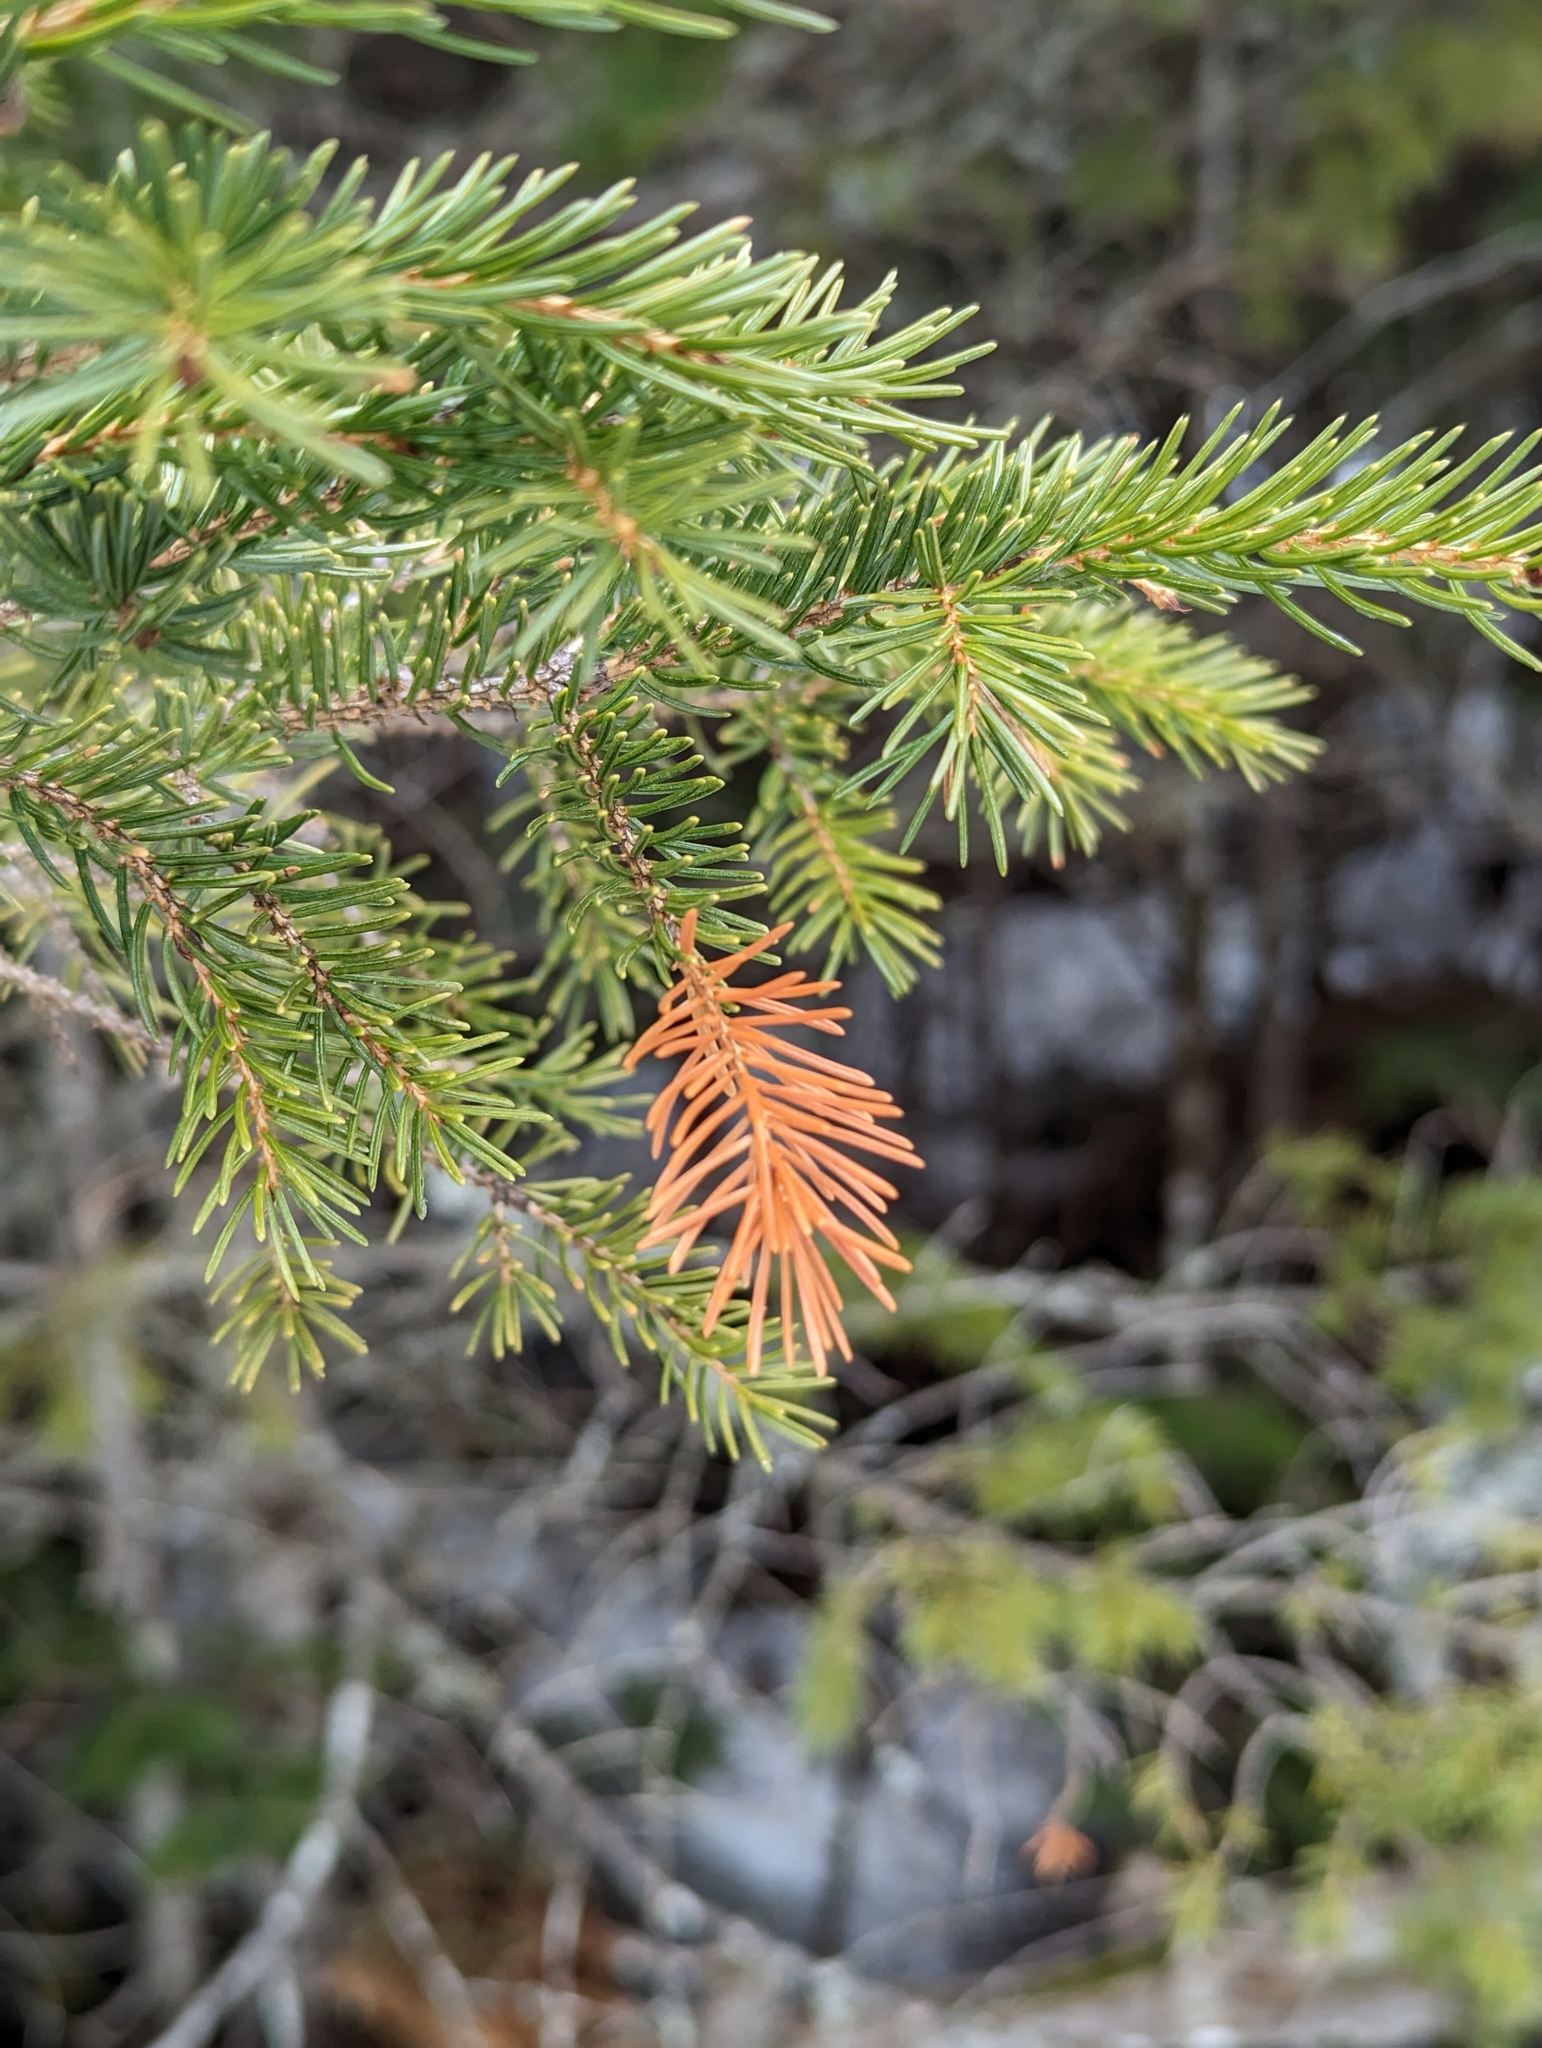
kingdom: Plantae
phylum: Tracheophyta
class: Pinopsida
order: Pinales
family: Pinaceae
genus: Picea
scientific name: Picea rubens
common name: Red spruce
